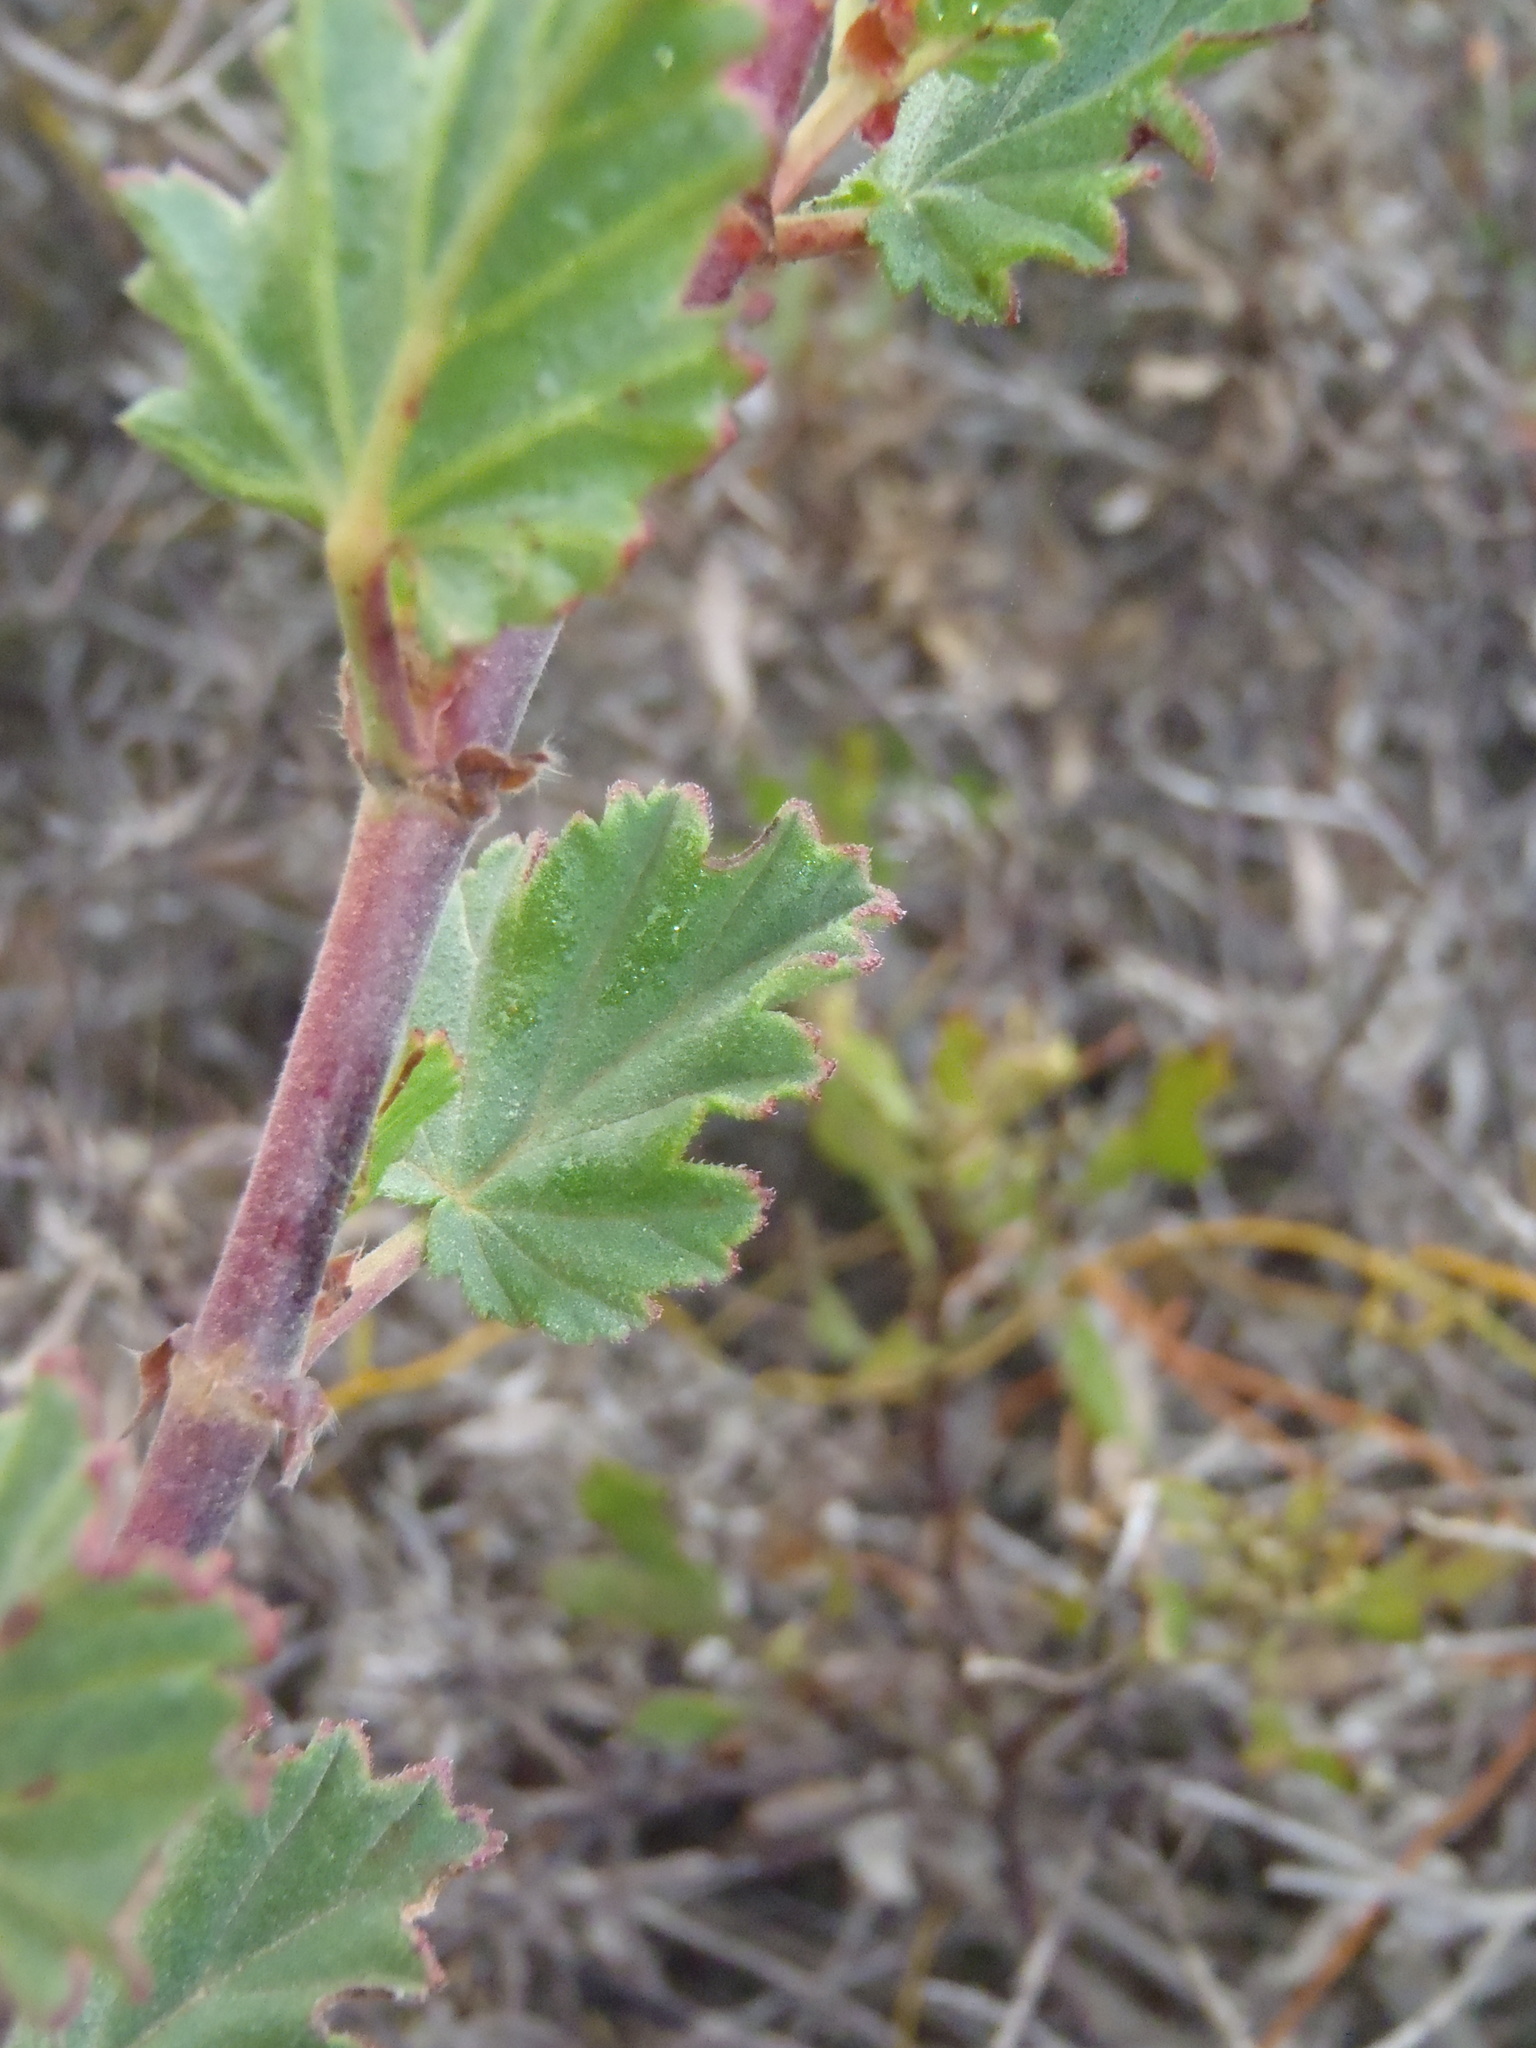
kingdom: Plantae
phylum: Tracheophyta
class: Magnoliopsida
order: Geraniales
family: Geraniaceae
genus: Pelargonium
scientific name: Pelargonium betulinum
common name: Birch-leaf pelargonium
